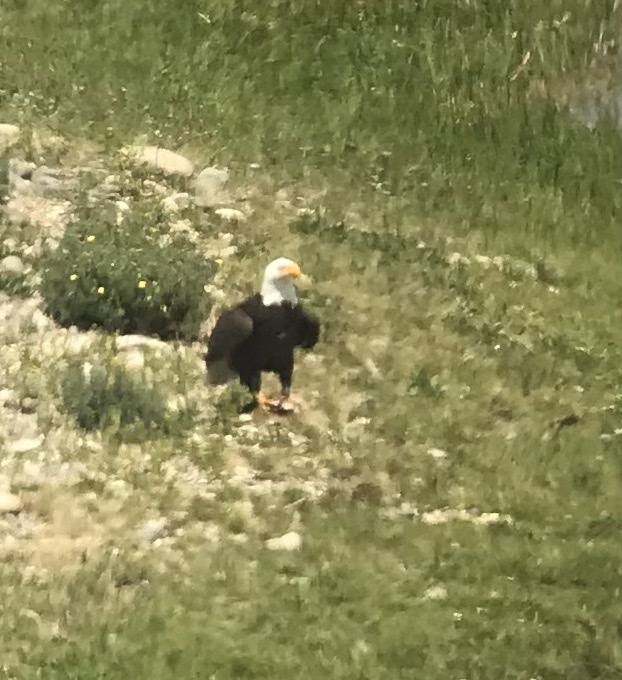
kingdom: Animalia
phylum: Chordata
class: Aves
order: Accipitriformes
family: Accipitridae
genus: Haliaeetus
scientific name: Haliaeetus leucocephalus
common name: Bald eagle
